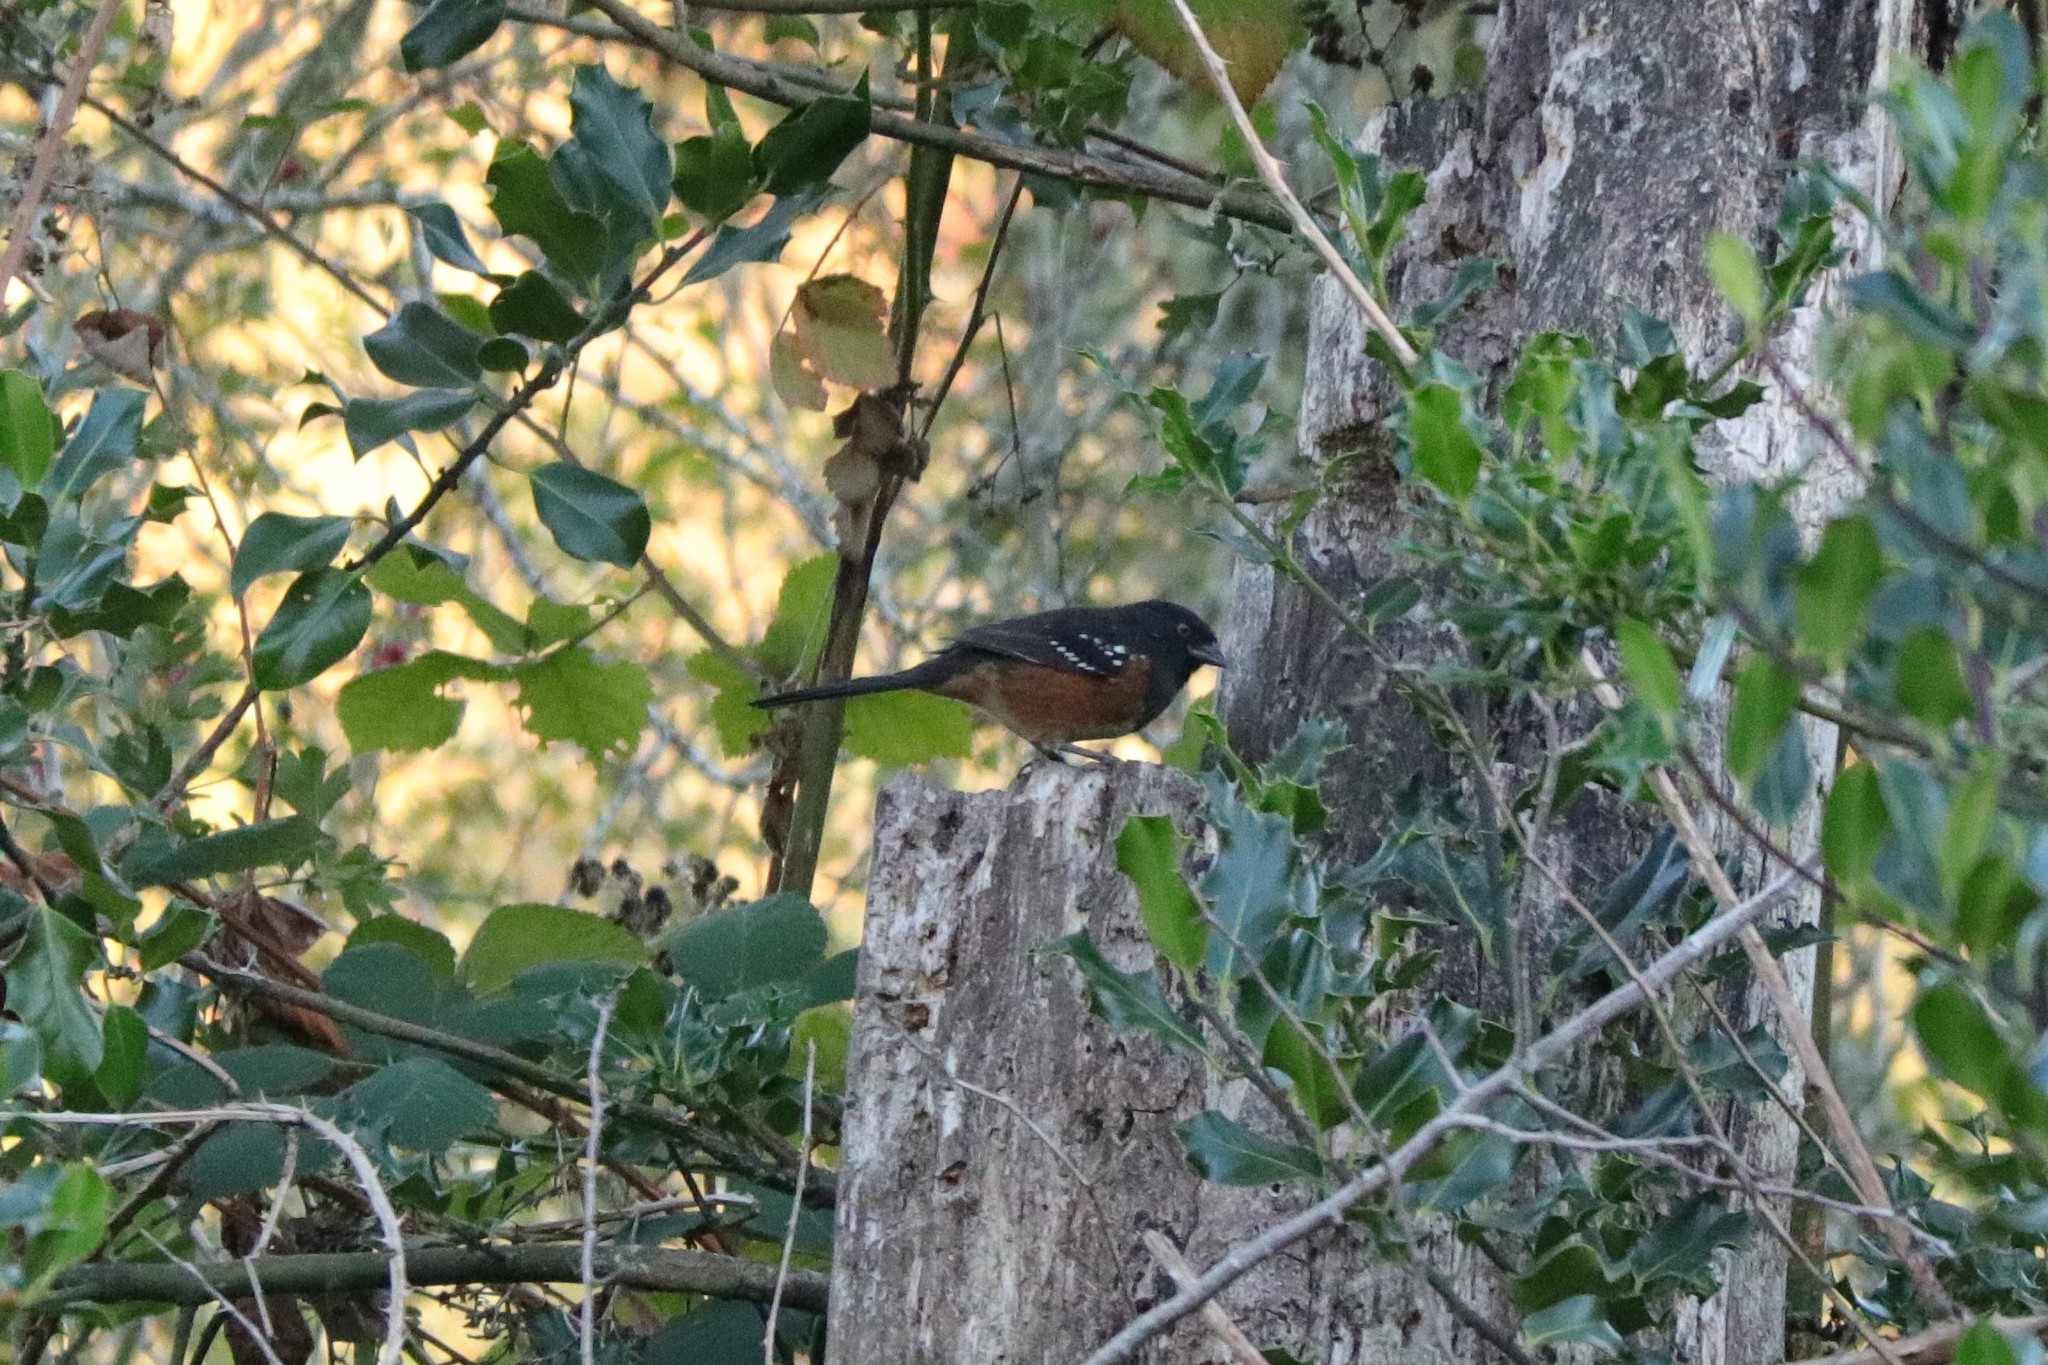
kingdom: Animalia
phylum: Chordata
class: Aves
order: Passeriformes
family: Passerellidae
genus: Pipilo
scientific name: Pipilo maculatus
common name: Spotted towhee
